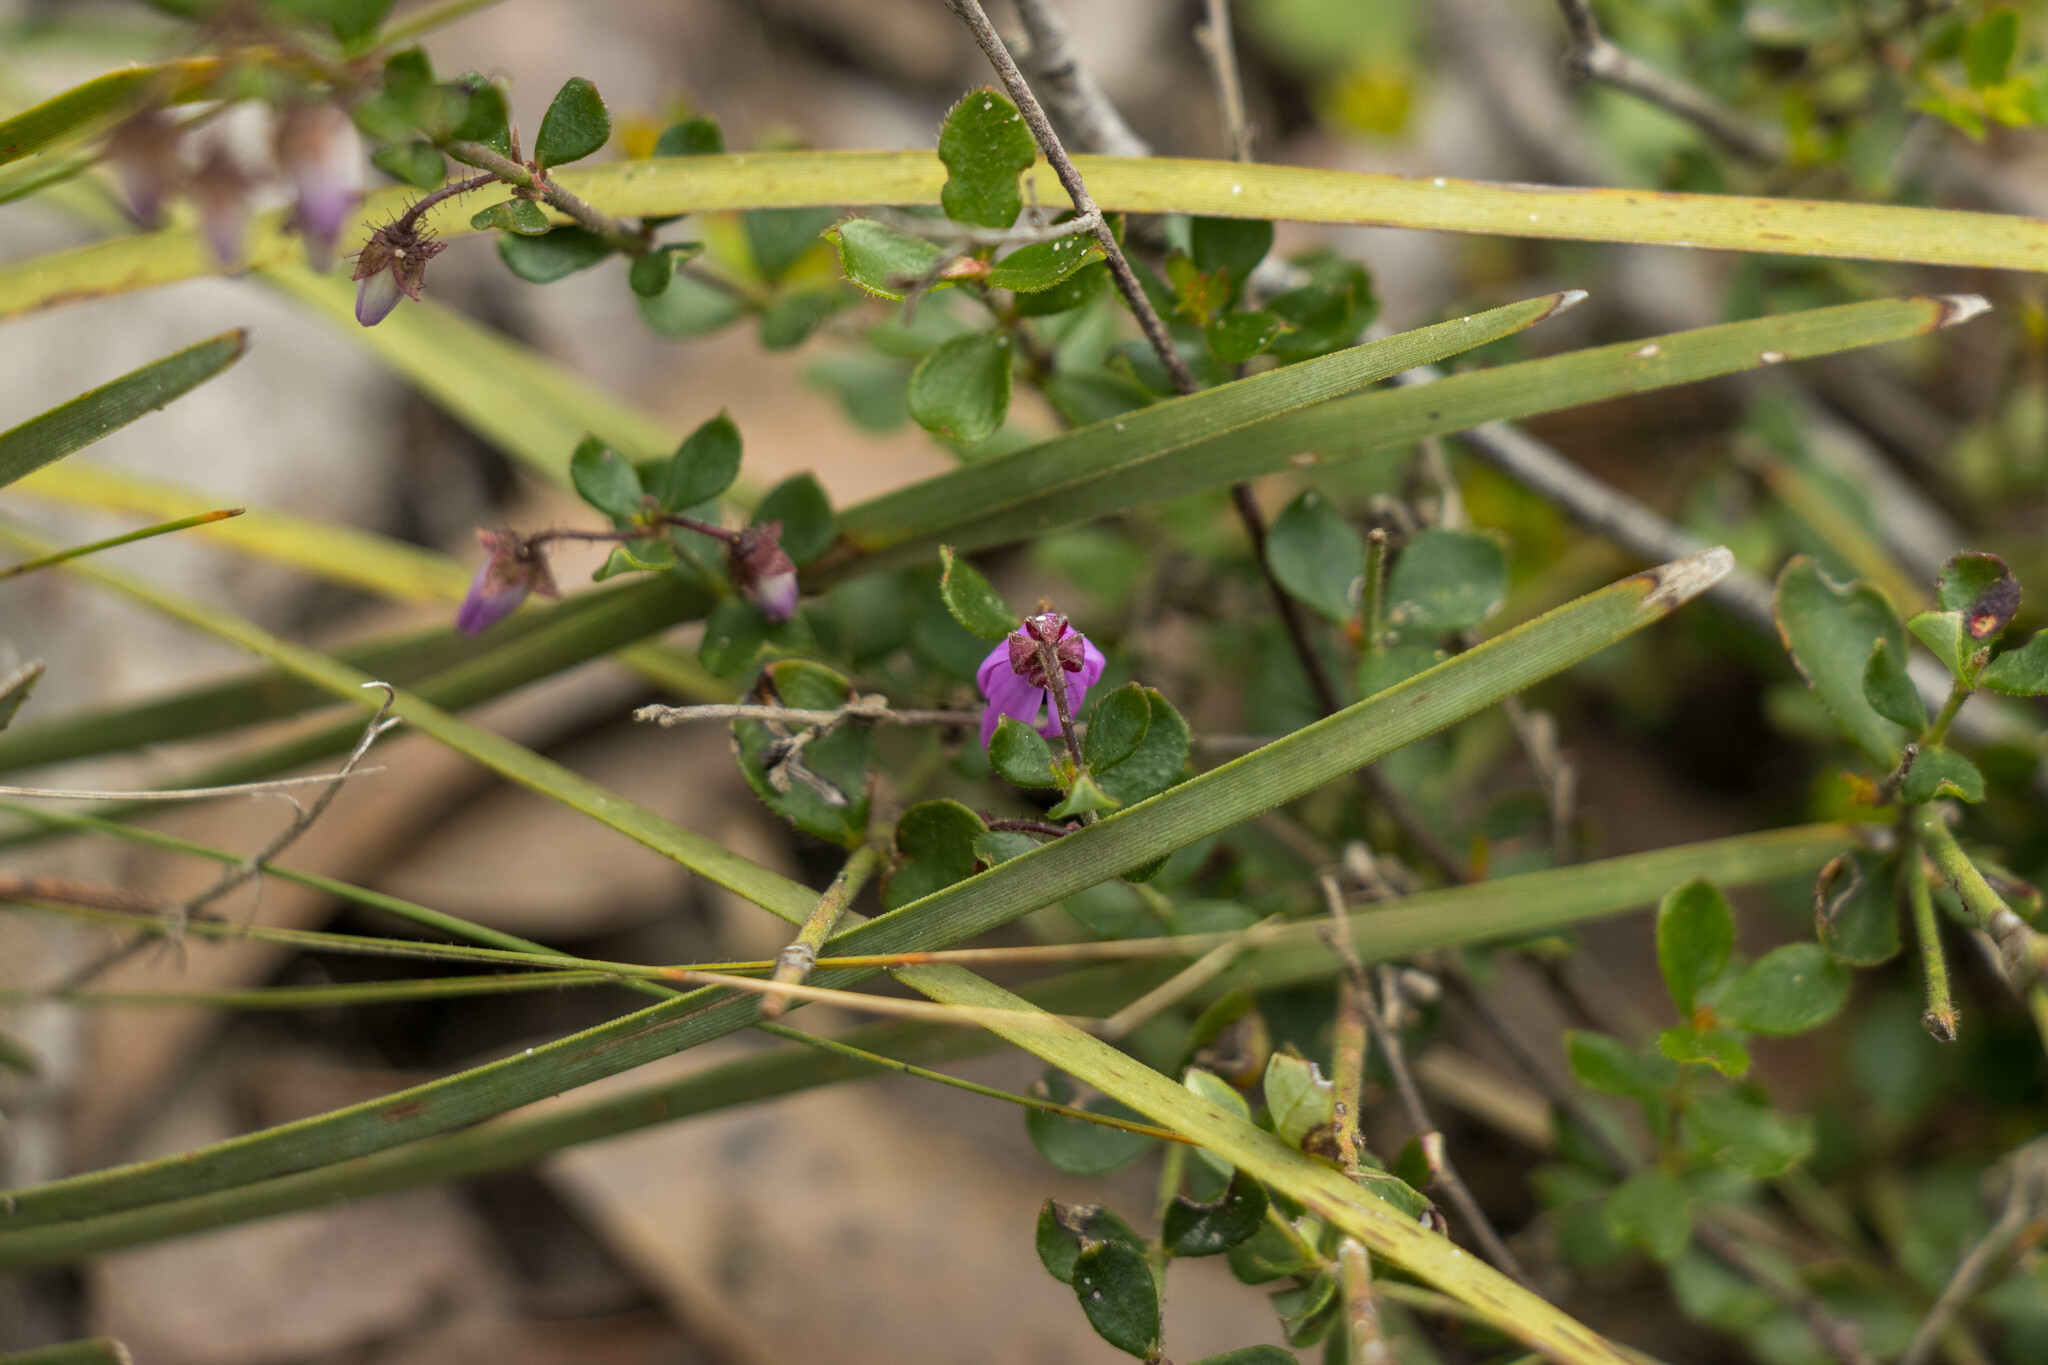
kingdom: Plantae
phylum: Tracheophyta
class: Magnoliopsida
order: Oxalidales
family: Elaeocarpaceae
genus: Tetratheca
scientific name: Tetratheca ciliata
